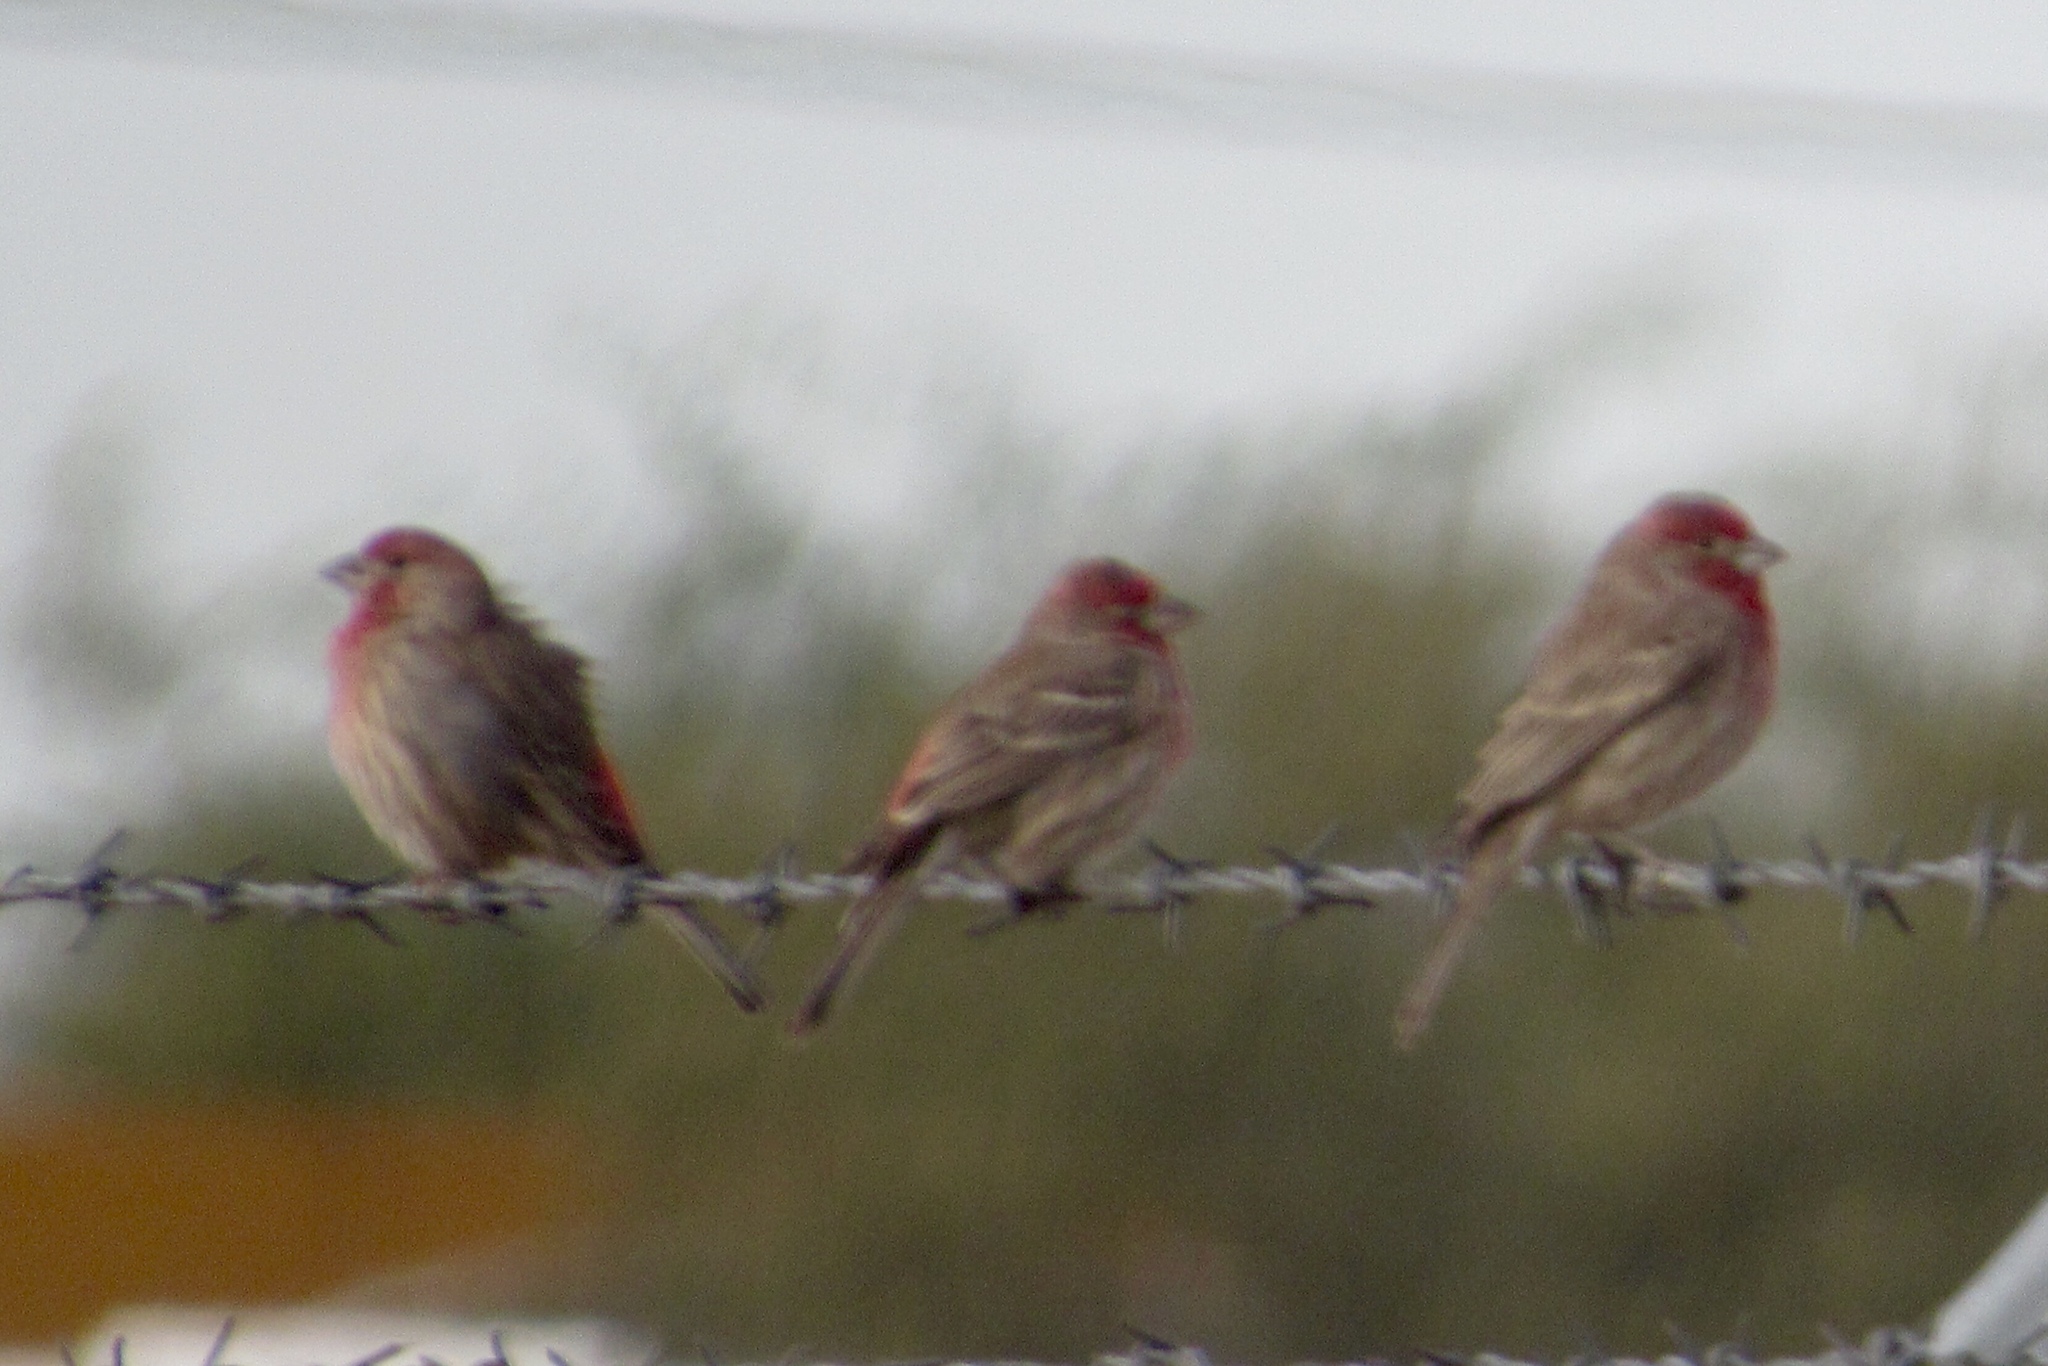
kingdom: Animalia
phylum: Chordata
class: Aves
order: Passeriformes
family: Fringillidae
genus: Haemorhous
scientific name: Haemorhous mexicanus
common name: House finch
